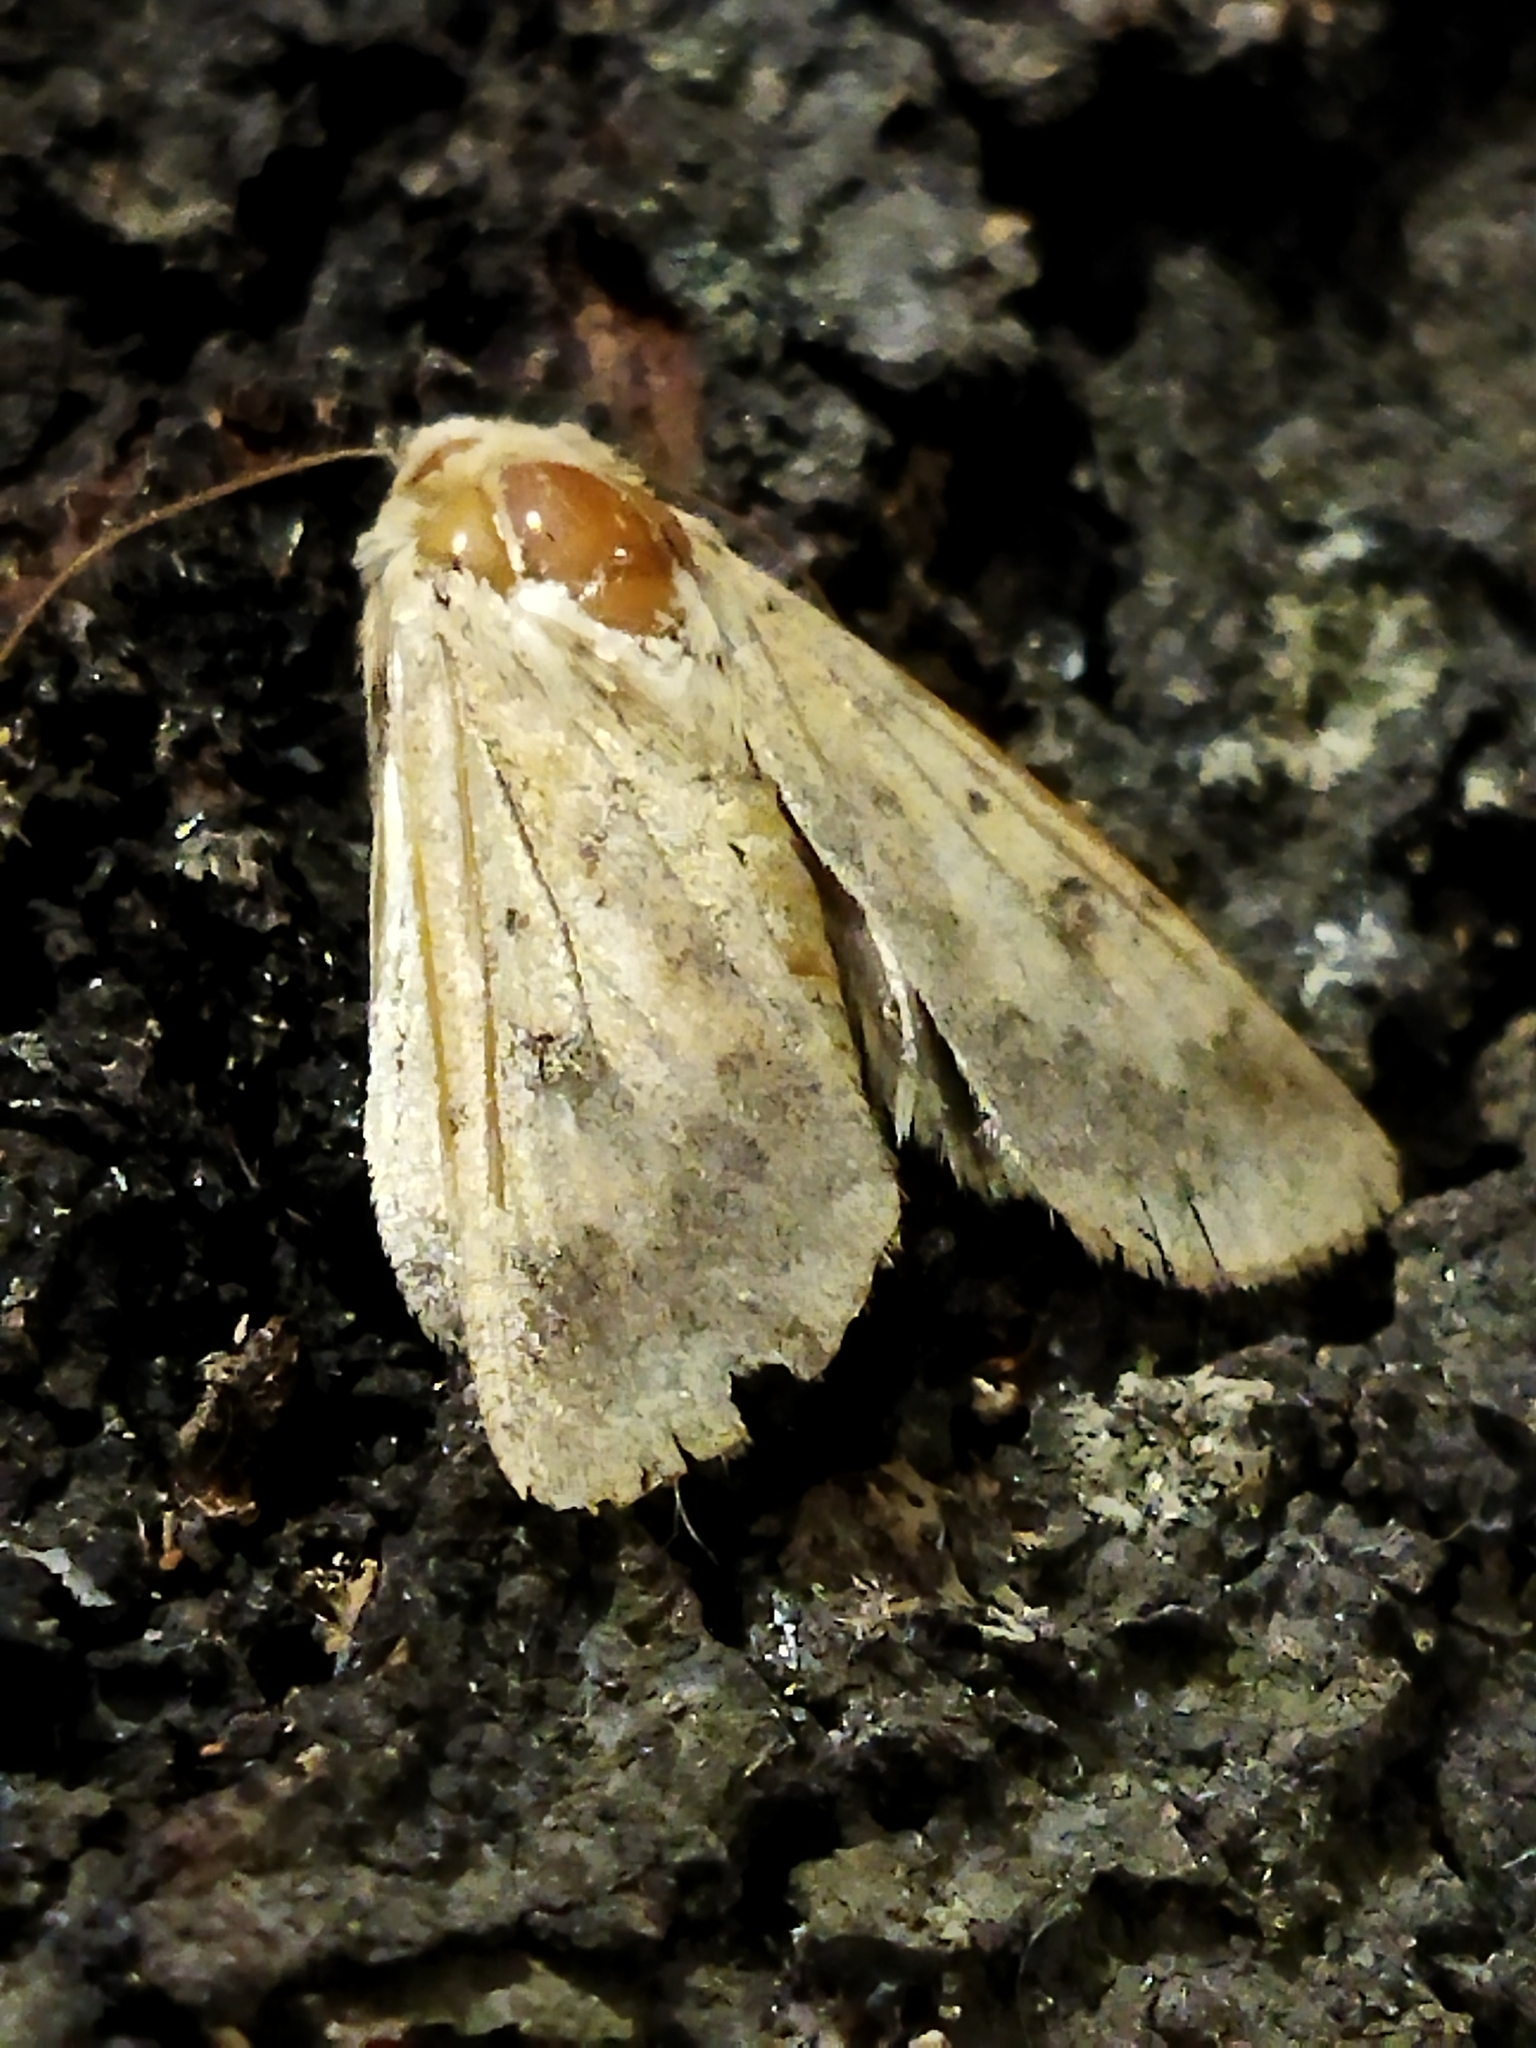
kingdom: Animalia
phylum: Arthropoda
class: Insecta
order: Lepidoptera
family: Noctuidae
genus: Helicoverpa
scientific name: Helicoverpa armigera
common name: Cotton bollworm
